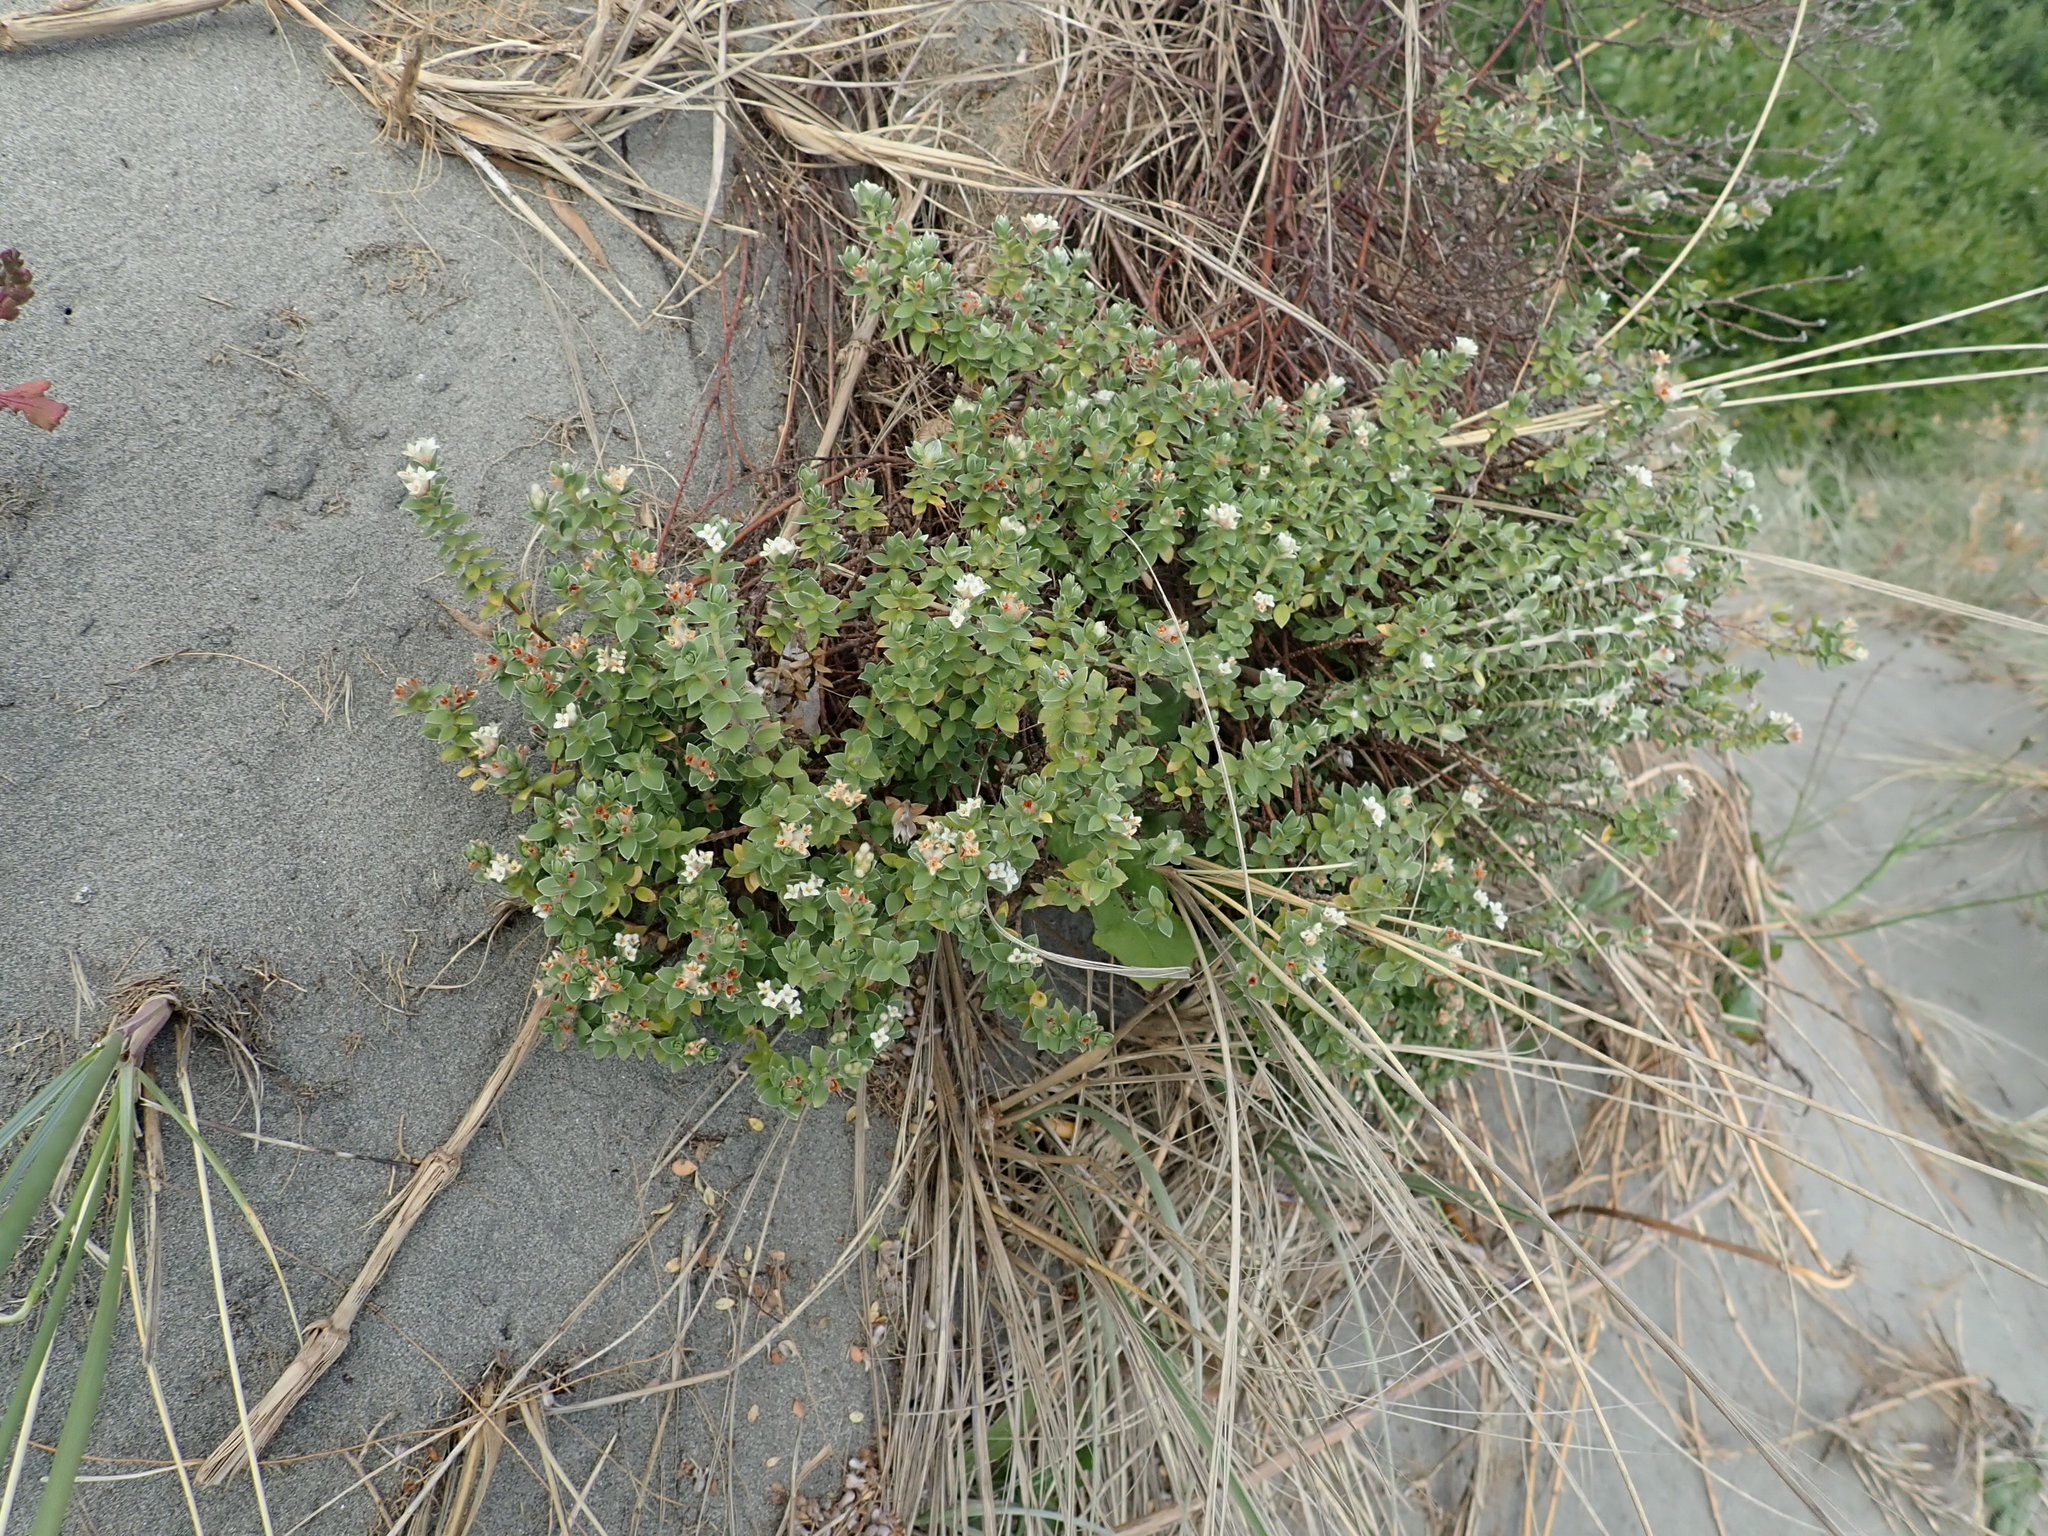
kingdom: Plantae
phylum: Tracheophyta
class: Magnoliopsida
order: Malvales
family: Thymelaeaceae
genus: Pimelea
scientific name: Pimelea villosa
